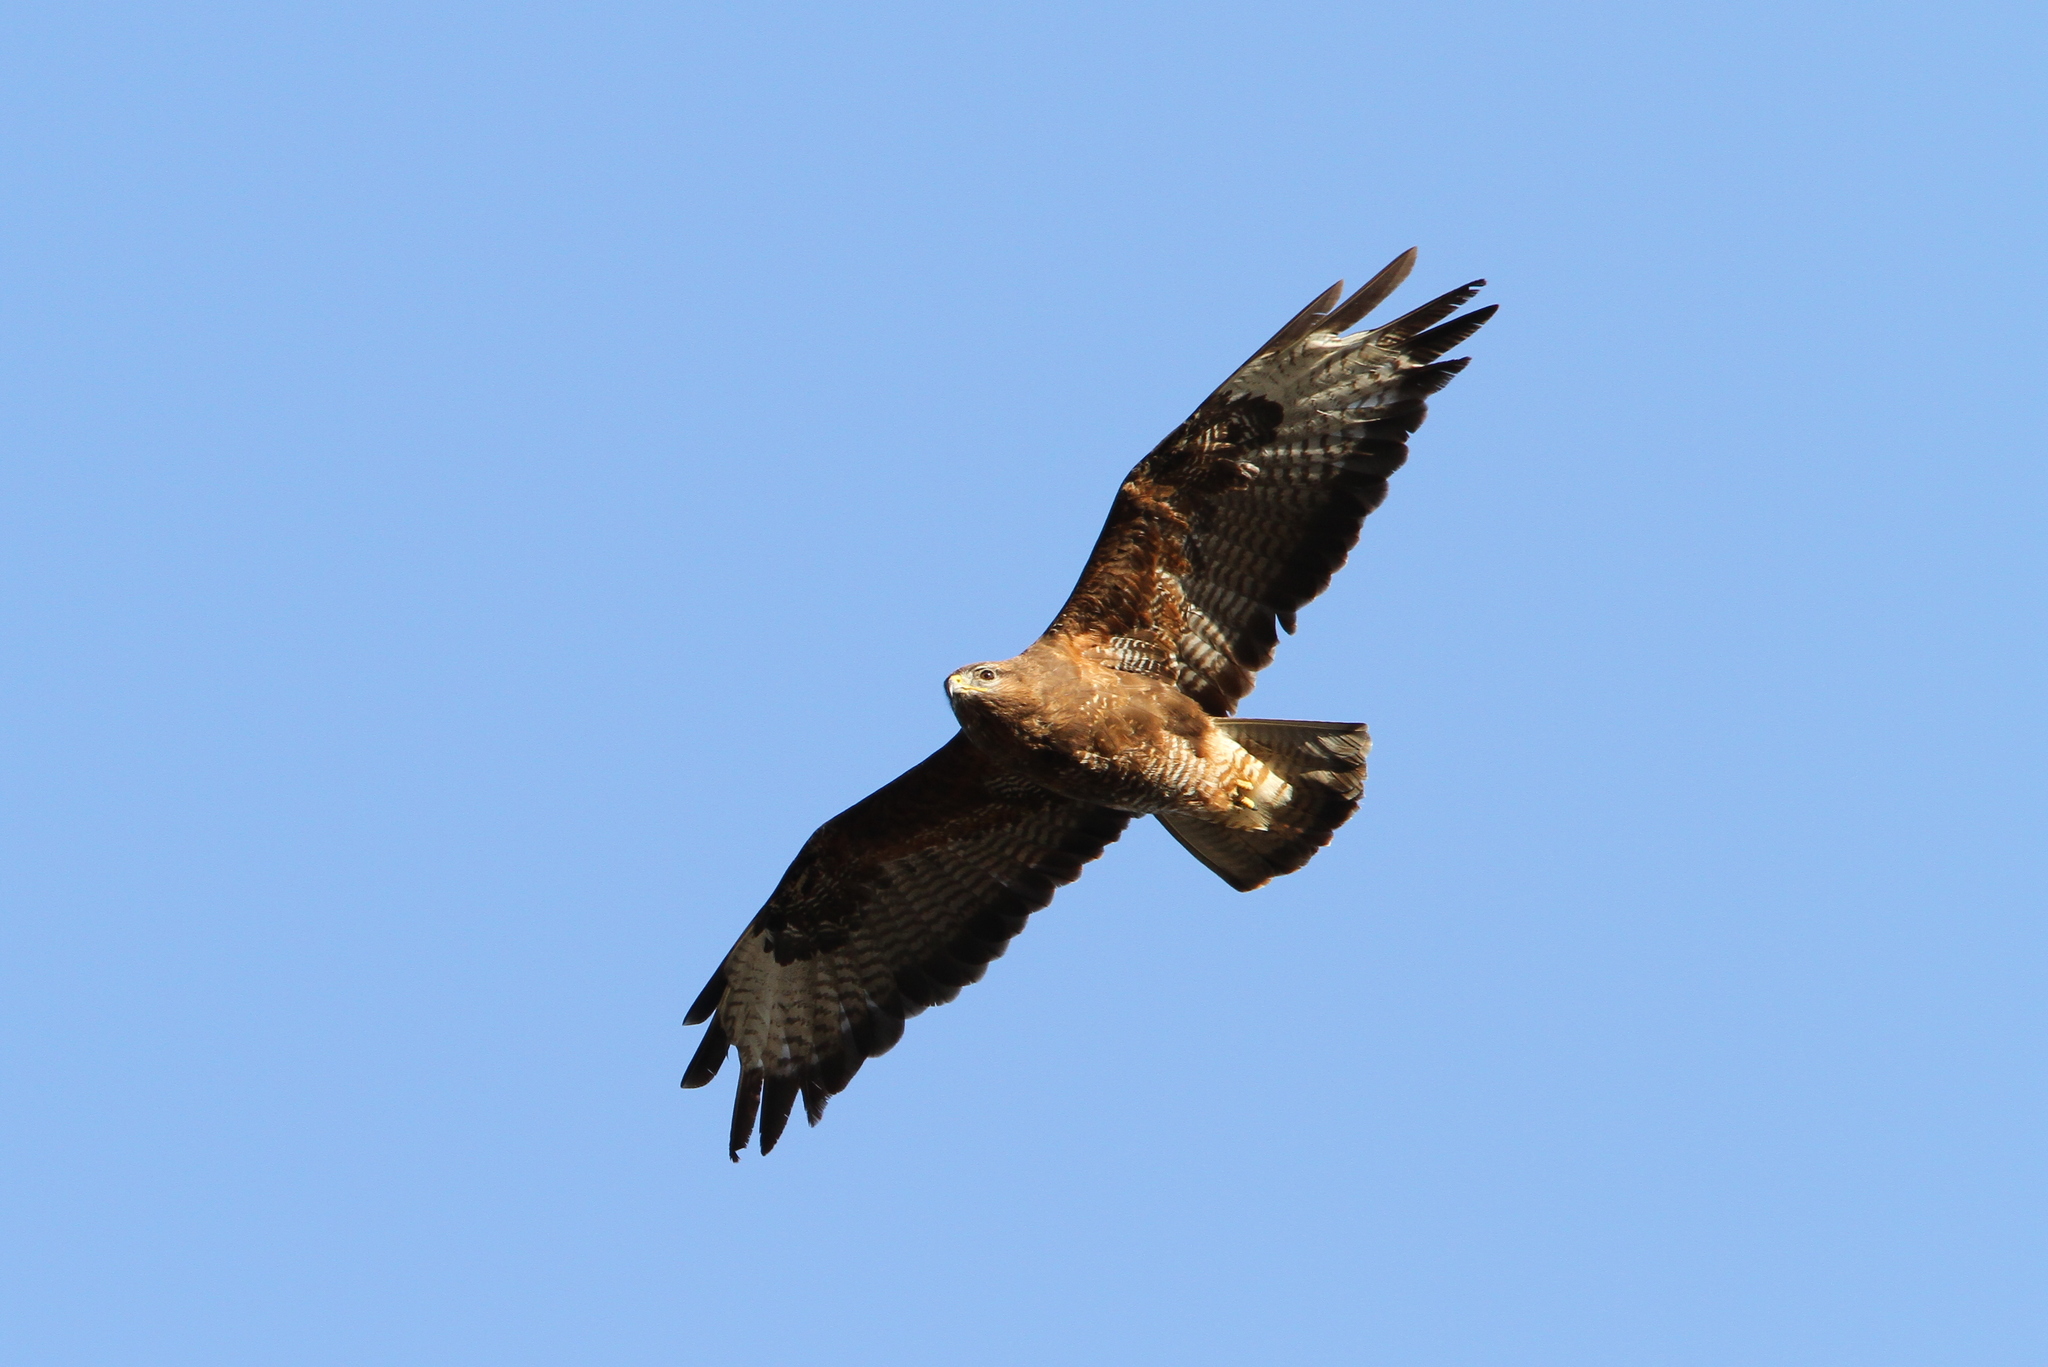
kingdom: Animalia
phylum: Chordata
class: Aves
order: Accipitriformes
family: Accipitridae
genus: Buteo
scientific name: Buteo buteo
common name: Common buzzard
